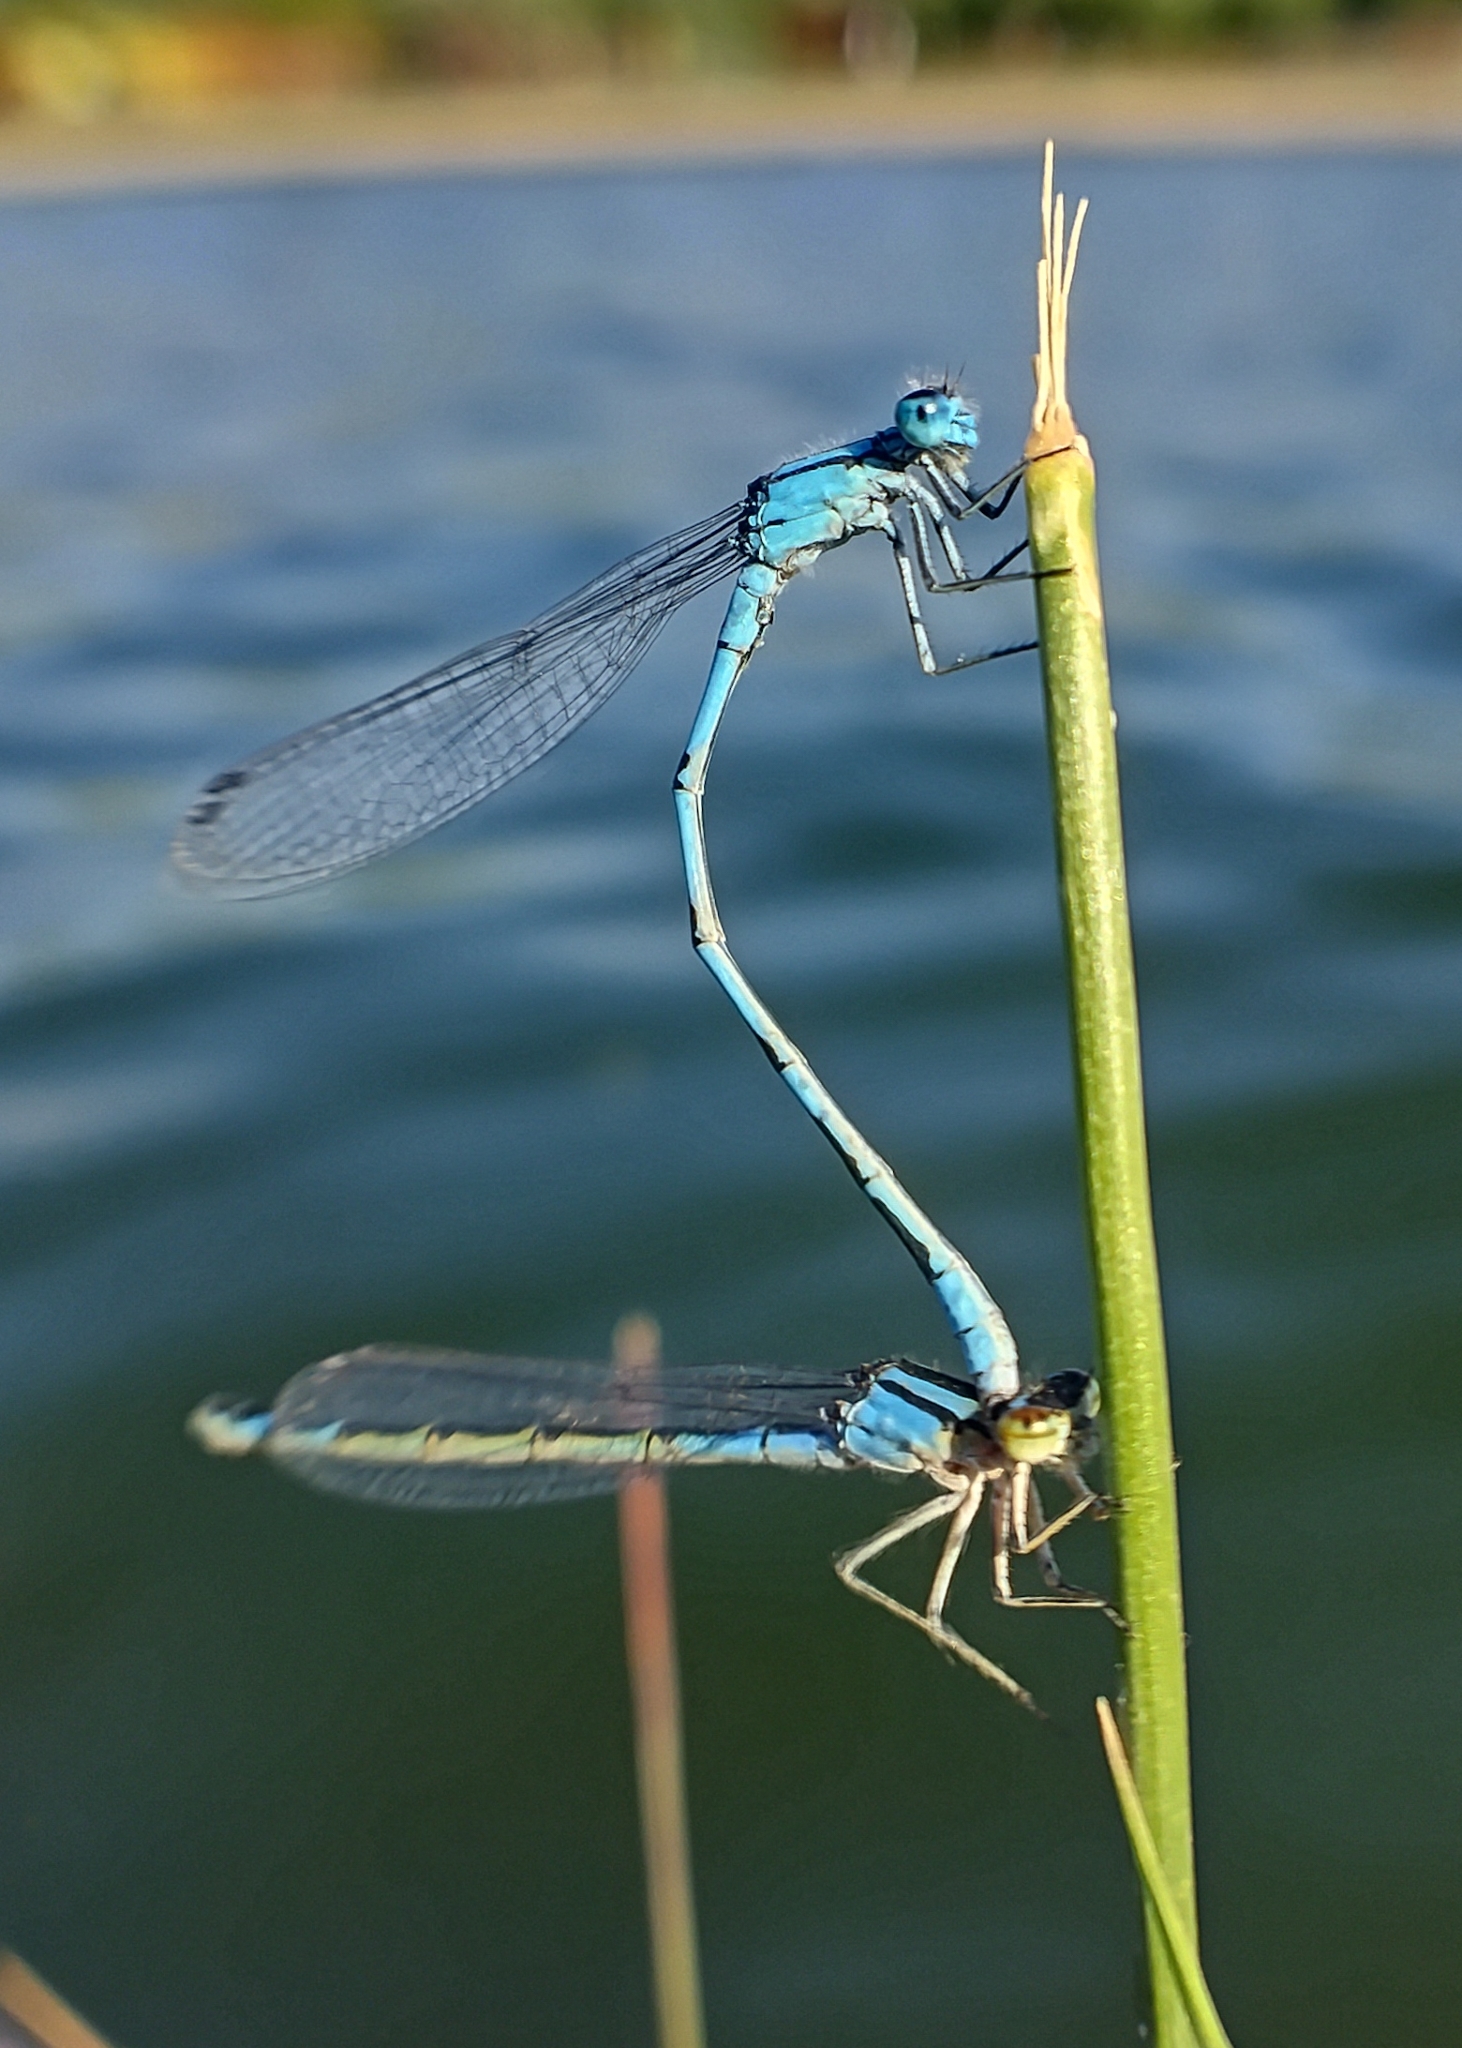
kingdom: Animalia
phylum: Arthropoda
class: Insecta
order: Odonata
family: Coenagrionidae
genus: Enallagma
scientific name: Enallagma cyathigerum
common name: Common blue damselfly
